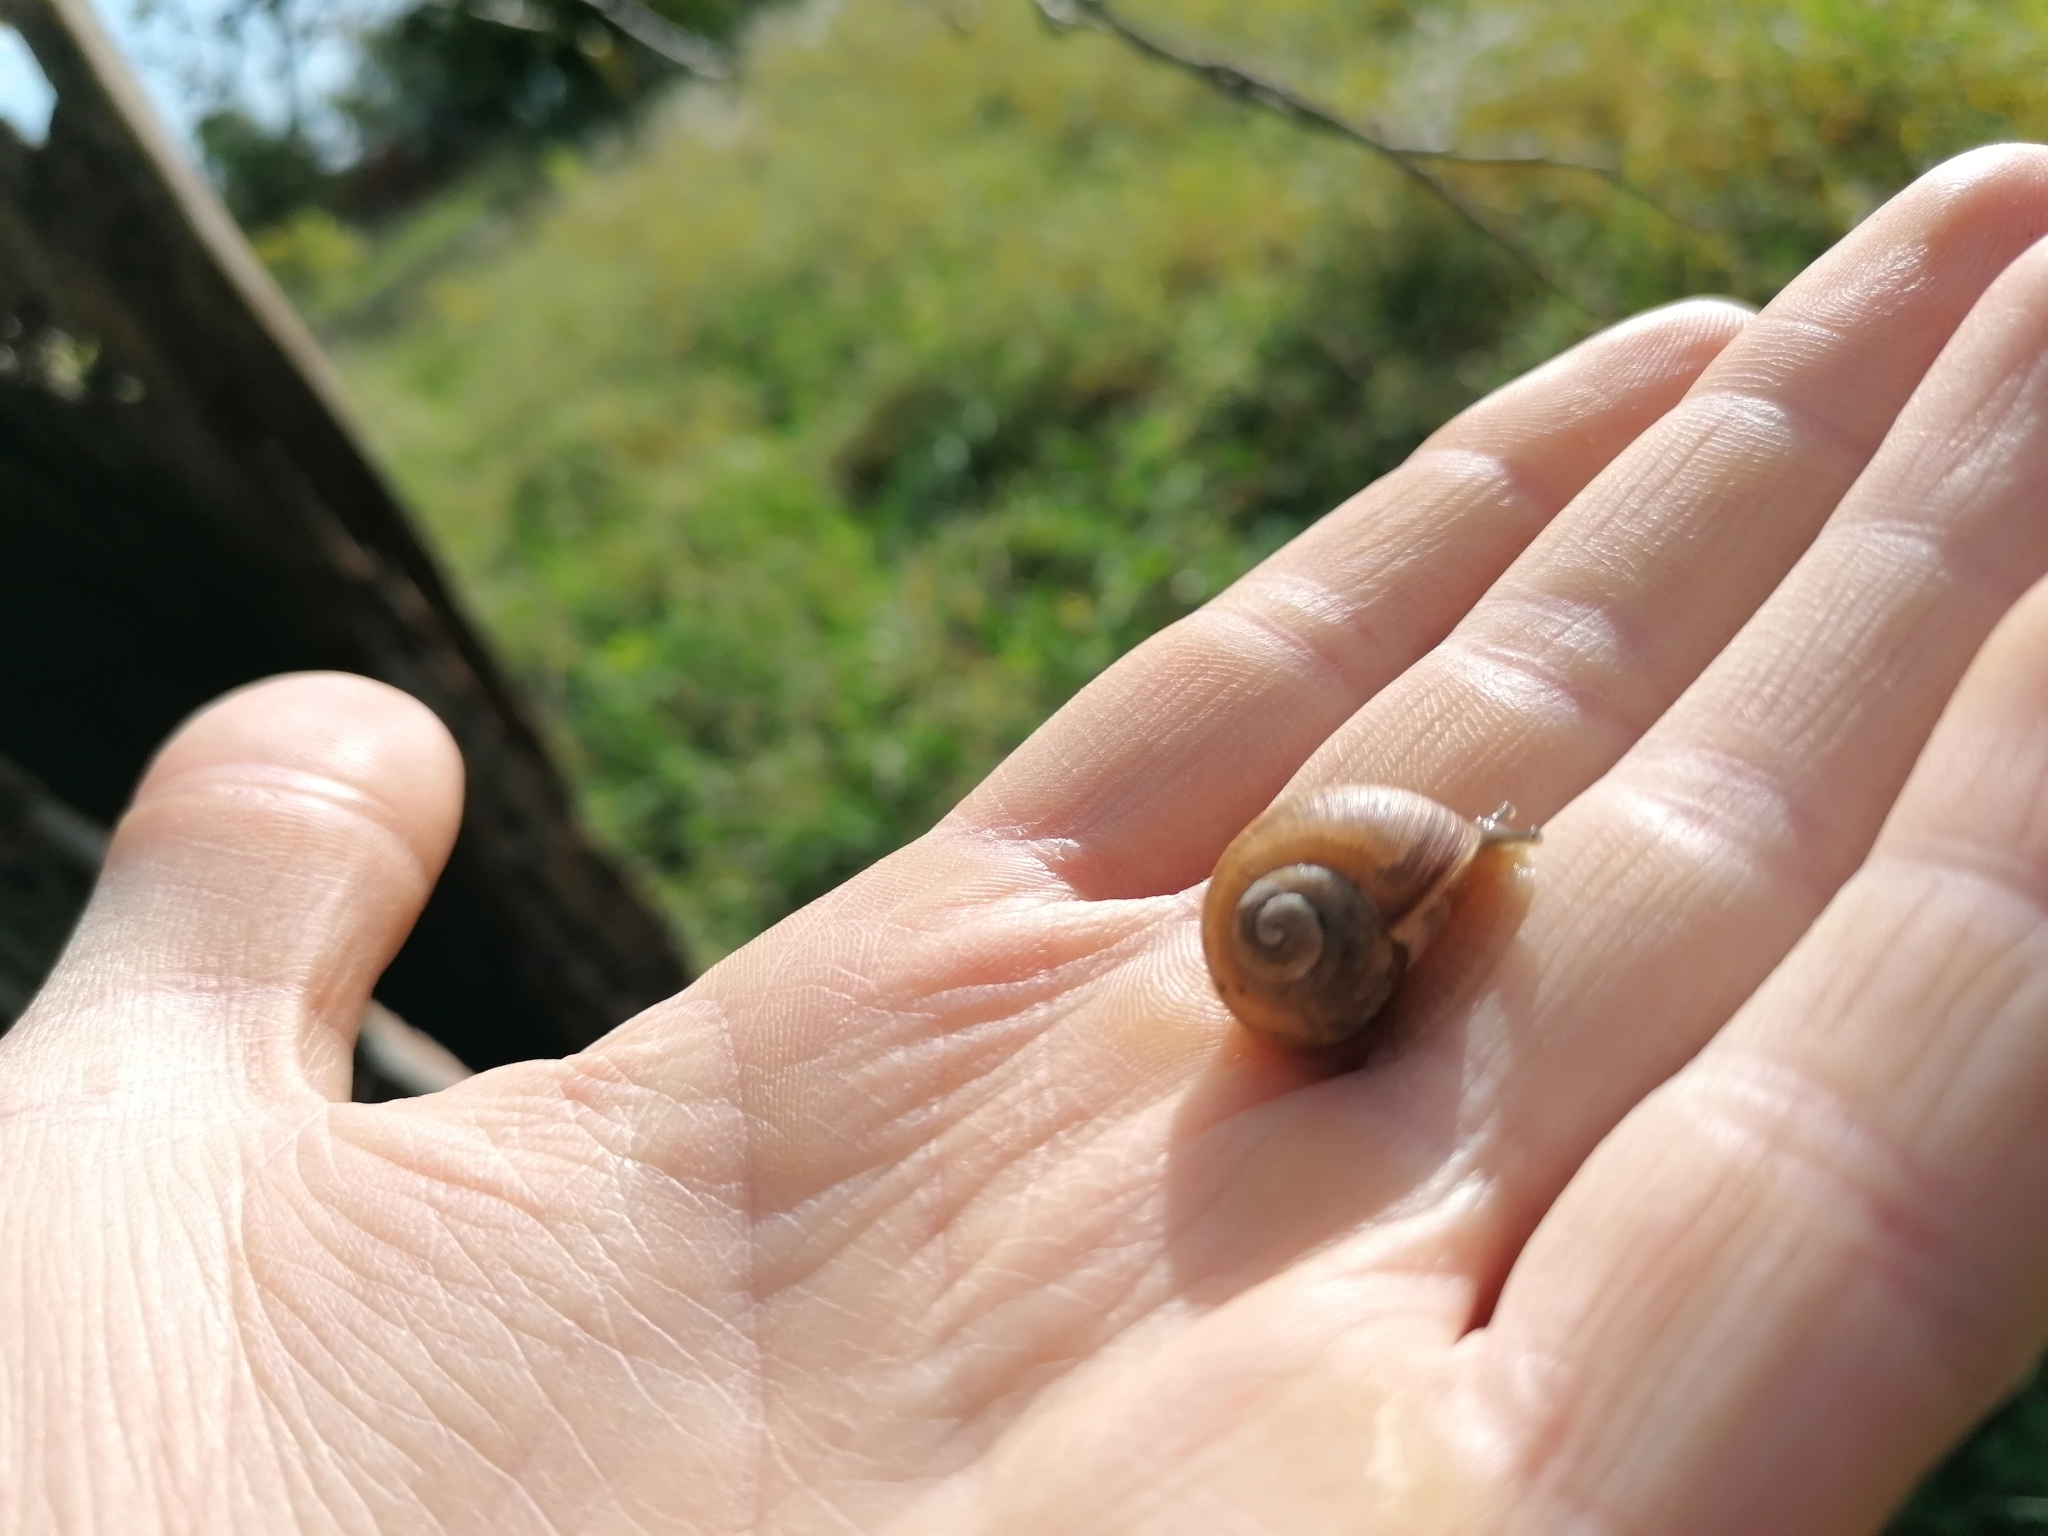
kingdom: Animalia
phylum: Mollusca
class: Gastropoda
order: Stylommatophora
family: Helicidae
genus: Helix
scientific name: Helix pomatia
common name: Roman snail
